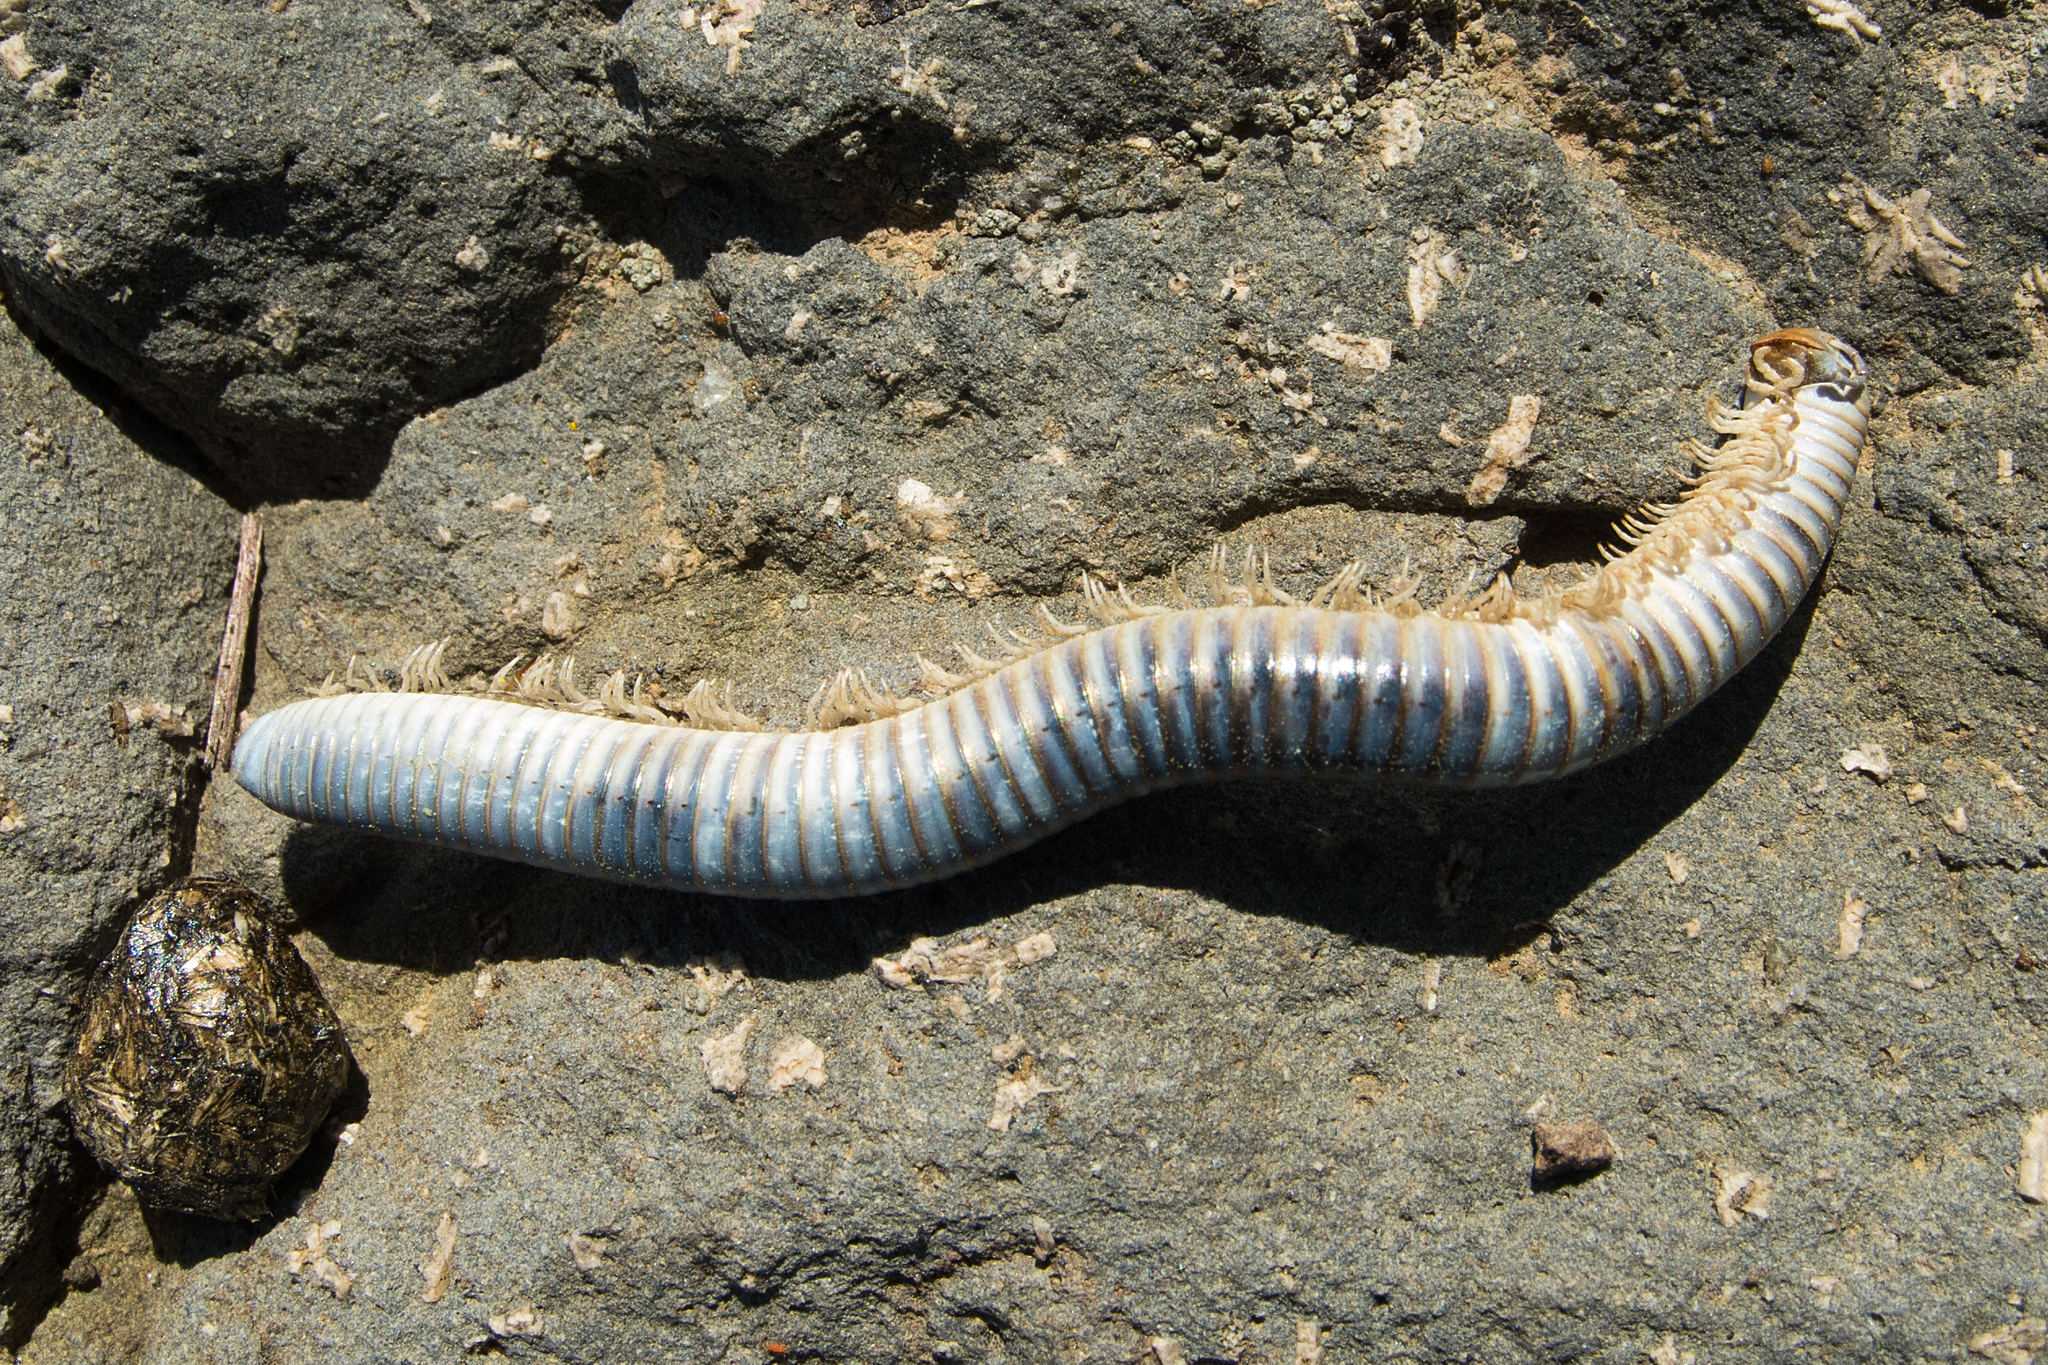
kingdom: Animalia
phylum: Arthropoda
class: Diplopoda
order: Julida
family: Julidae
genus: Pachyiulus
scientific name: Pachyiulus flavipes
